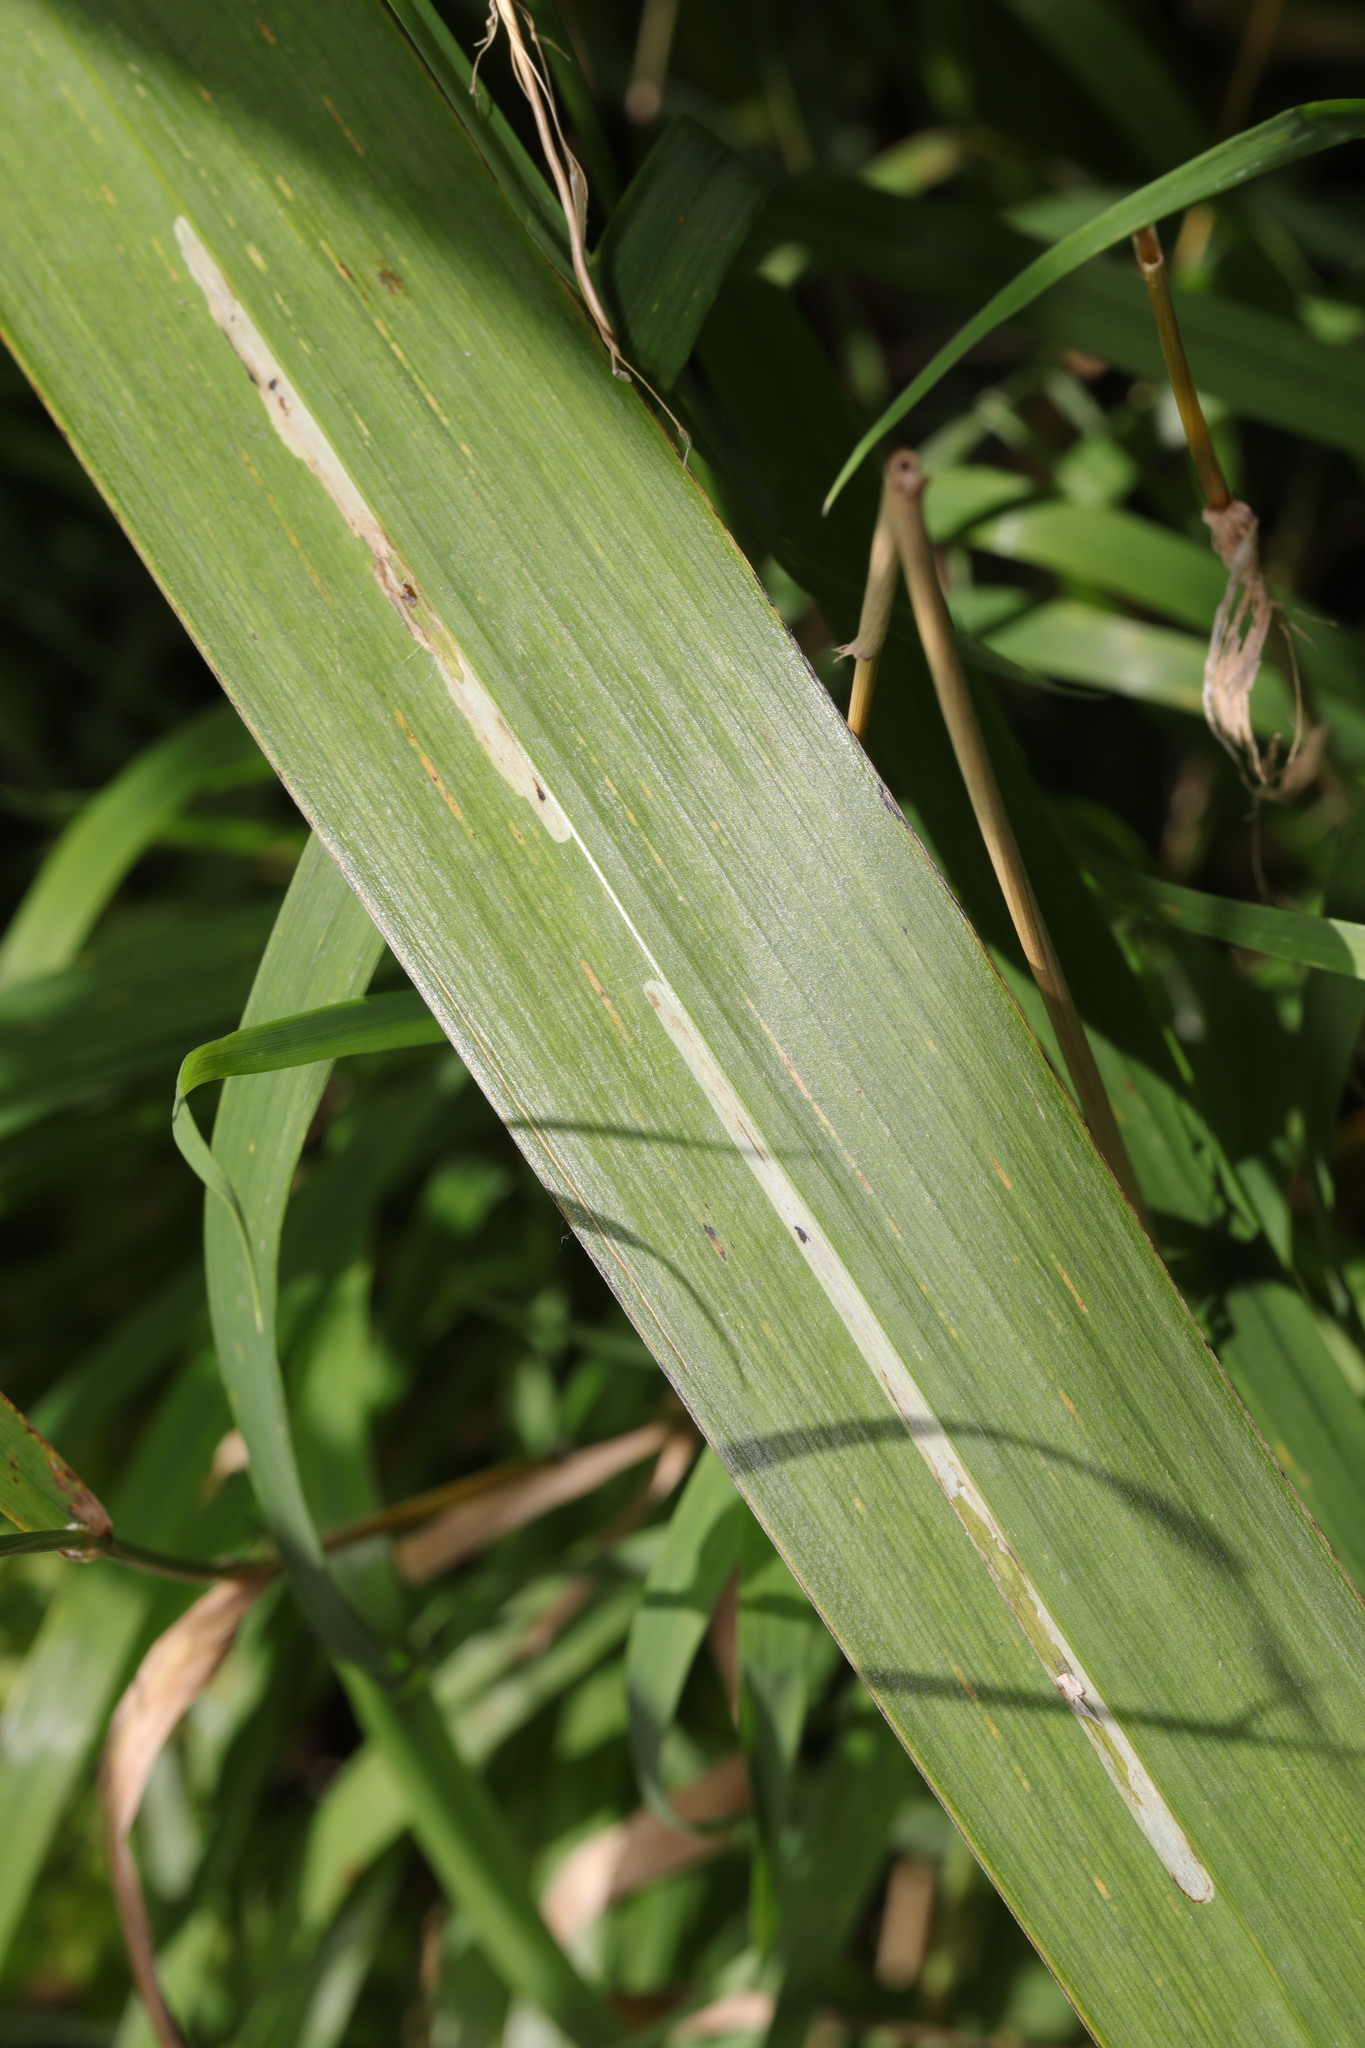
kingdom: Animalia
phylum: Arthropoda
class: Insecta
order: Diptera
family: Agromyzidae
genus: Cerodontha
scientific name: Cerodontha ircos
